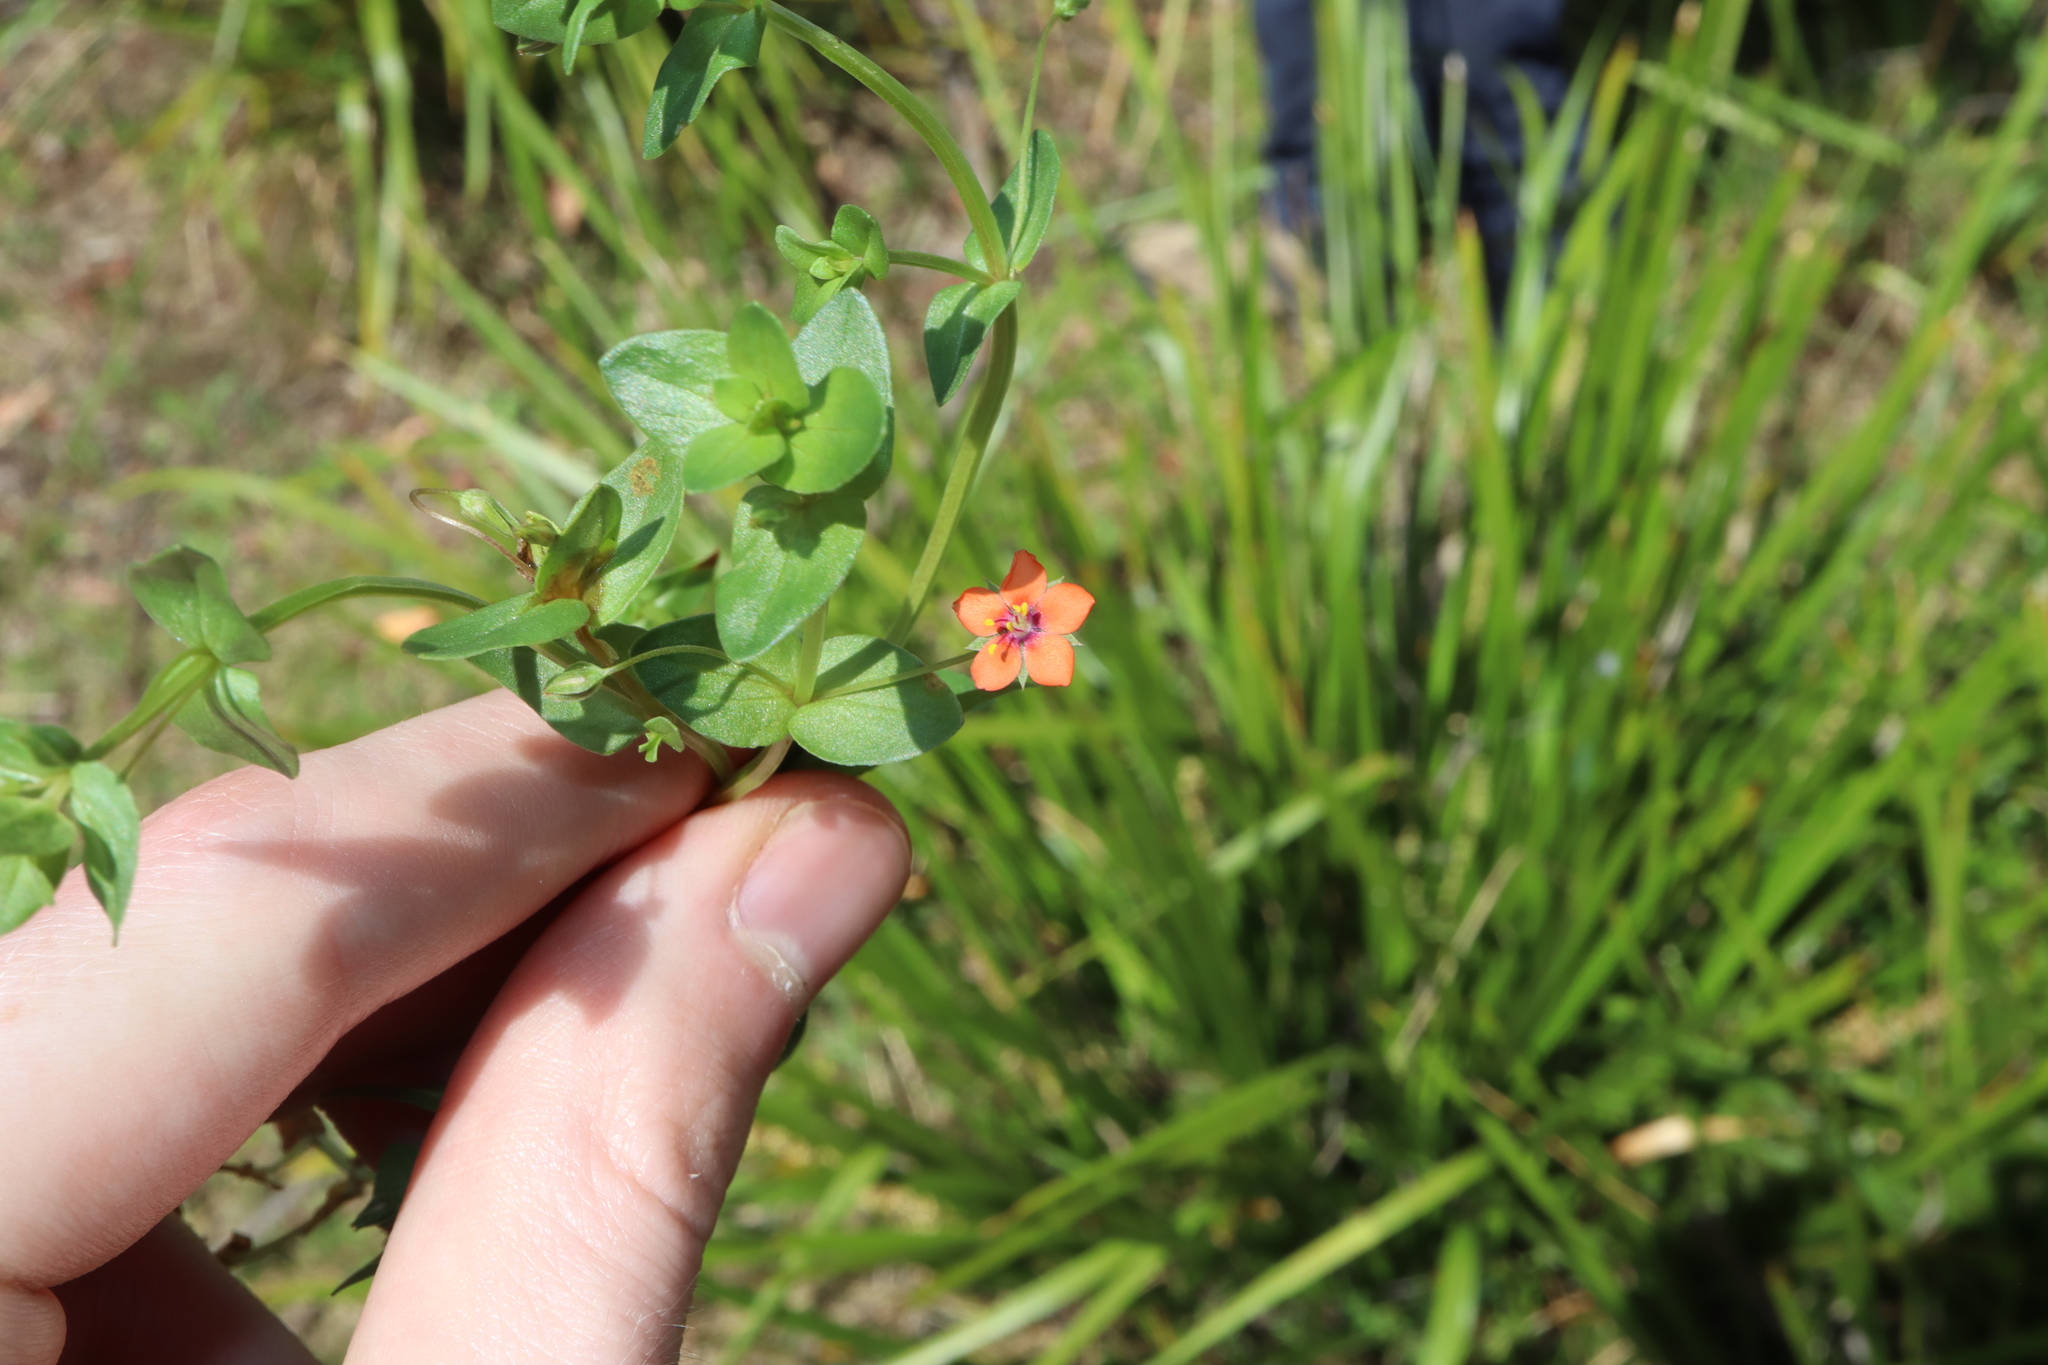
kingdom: Plantae
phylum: Tracheophyta
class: Magnoliopsida
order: Ericales
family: Primulaceae
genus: Lysimachia
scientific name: Lysimachia arvensis
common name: Scarlet pimpernel
